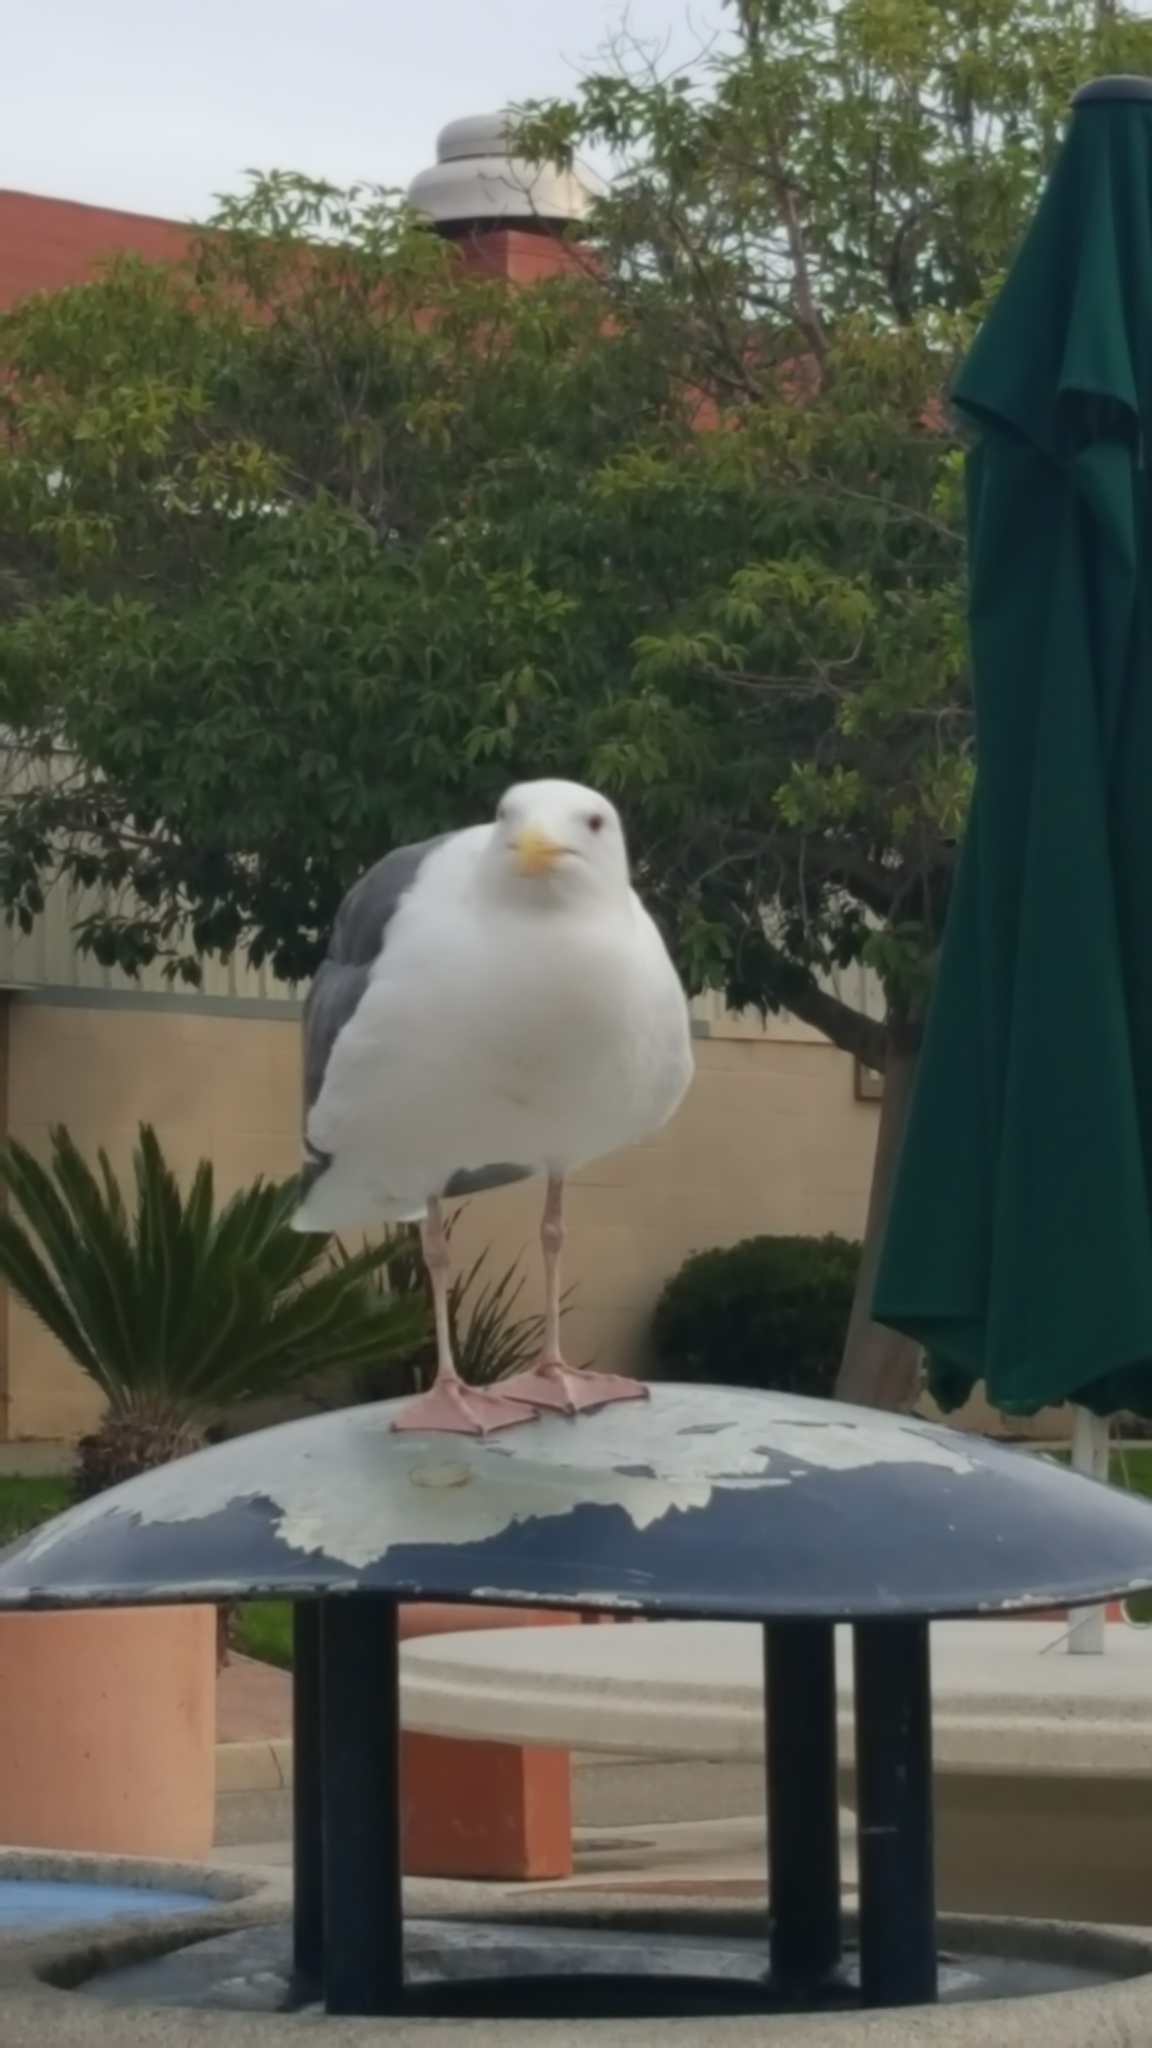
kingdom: Animalia
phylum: Chordata
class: Aves
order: Charadriiformes
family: Laridae
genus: Larus
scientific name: Larus occidentalis
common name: Western gull
